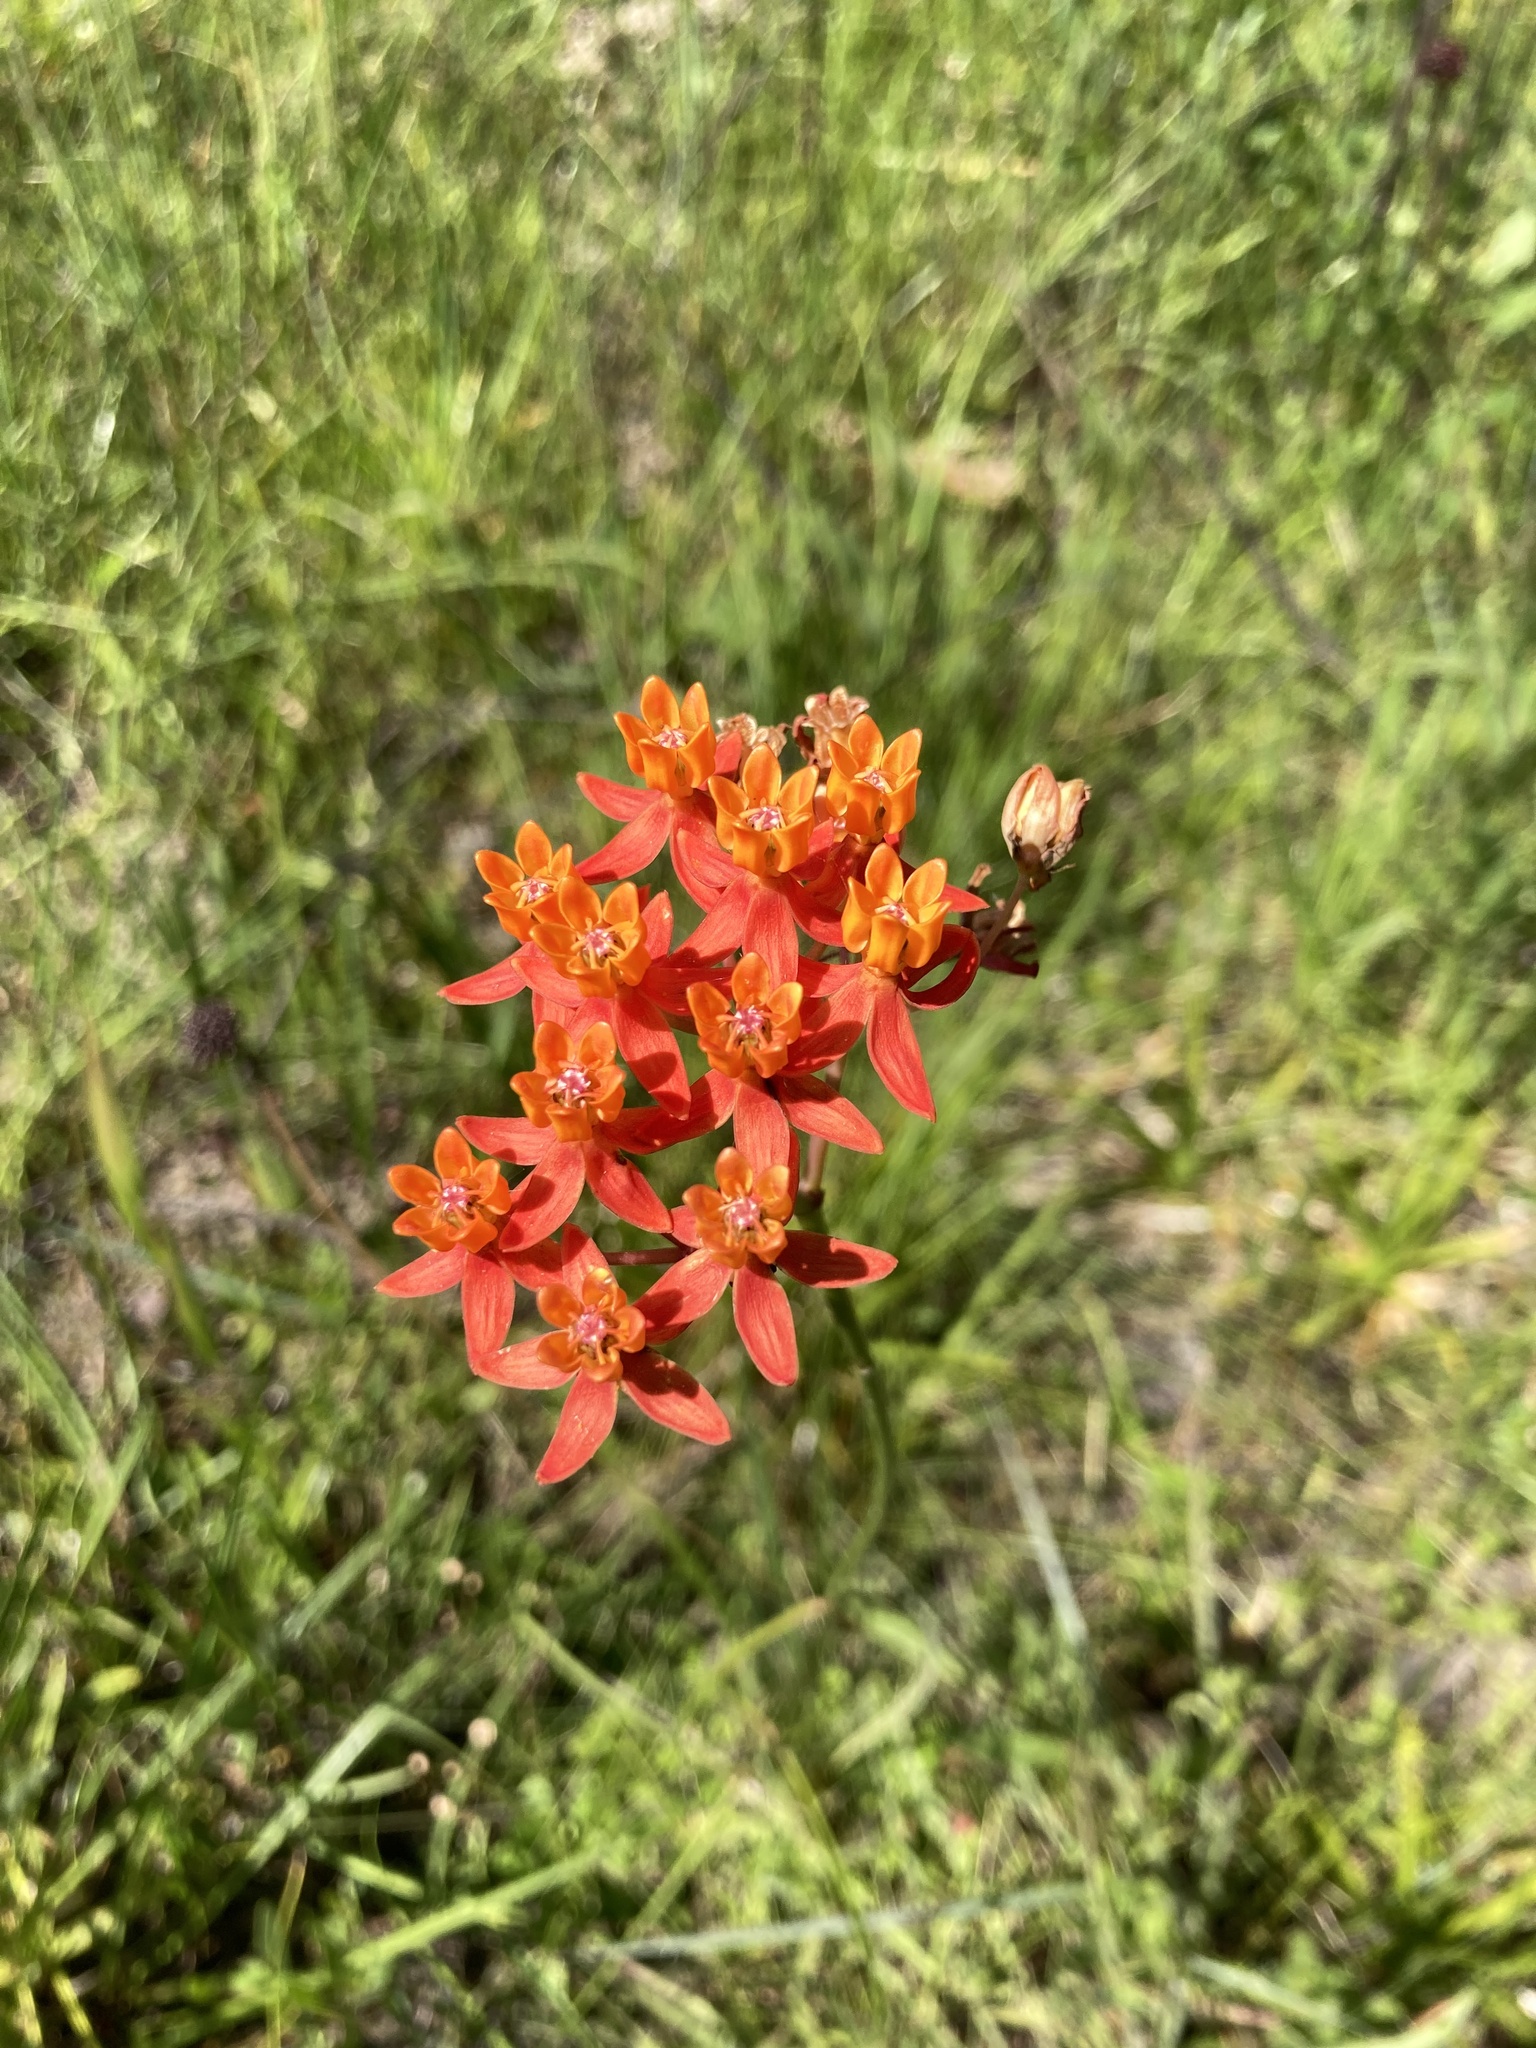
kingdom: Plantae
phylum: Tracheophyta
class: Magnoliopsida
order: Gentianales
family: Apocynaceae
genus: Asclepias
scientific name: Asclepias lanceolata
